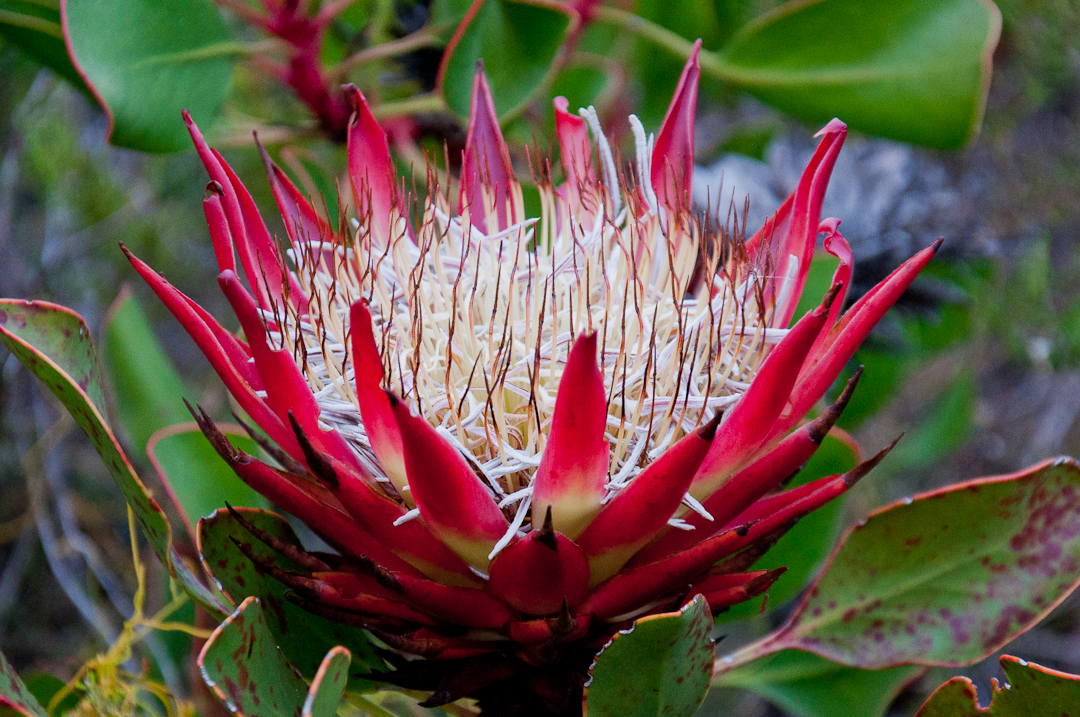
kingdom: Plantae
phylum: Tracheophyta
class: Magnoliopsida
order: Proteales
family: Proteaceae
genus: Protea
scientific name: Protea cynaroides
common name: King protea
